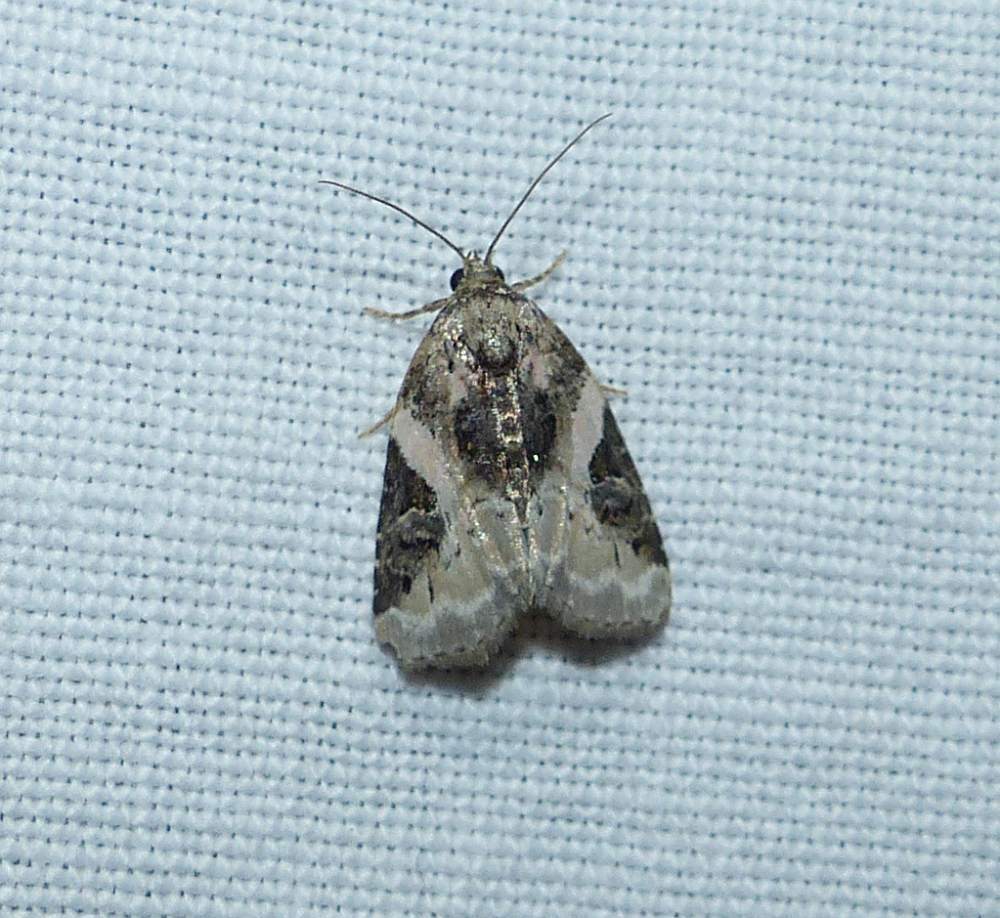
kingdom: Animalia
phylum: Arthropoda
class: Insecta
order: Lepidoptera
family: Noctuidae
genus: Pseudeustrotia
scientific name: Pseudeustrotia carneola
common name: Pink-barred lithacodia moth
